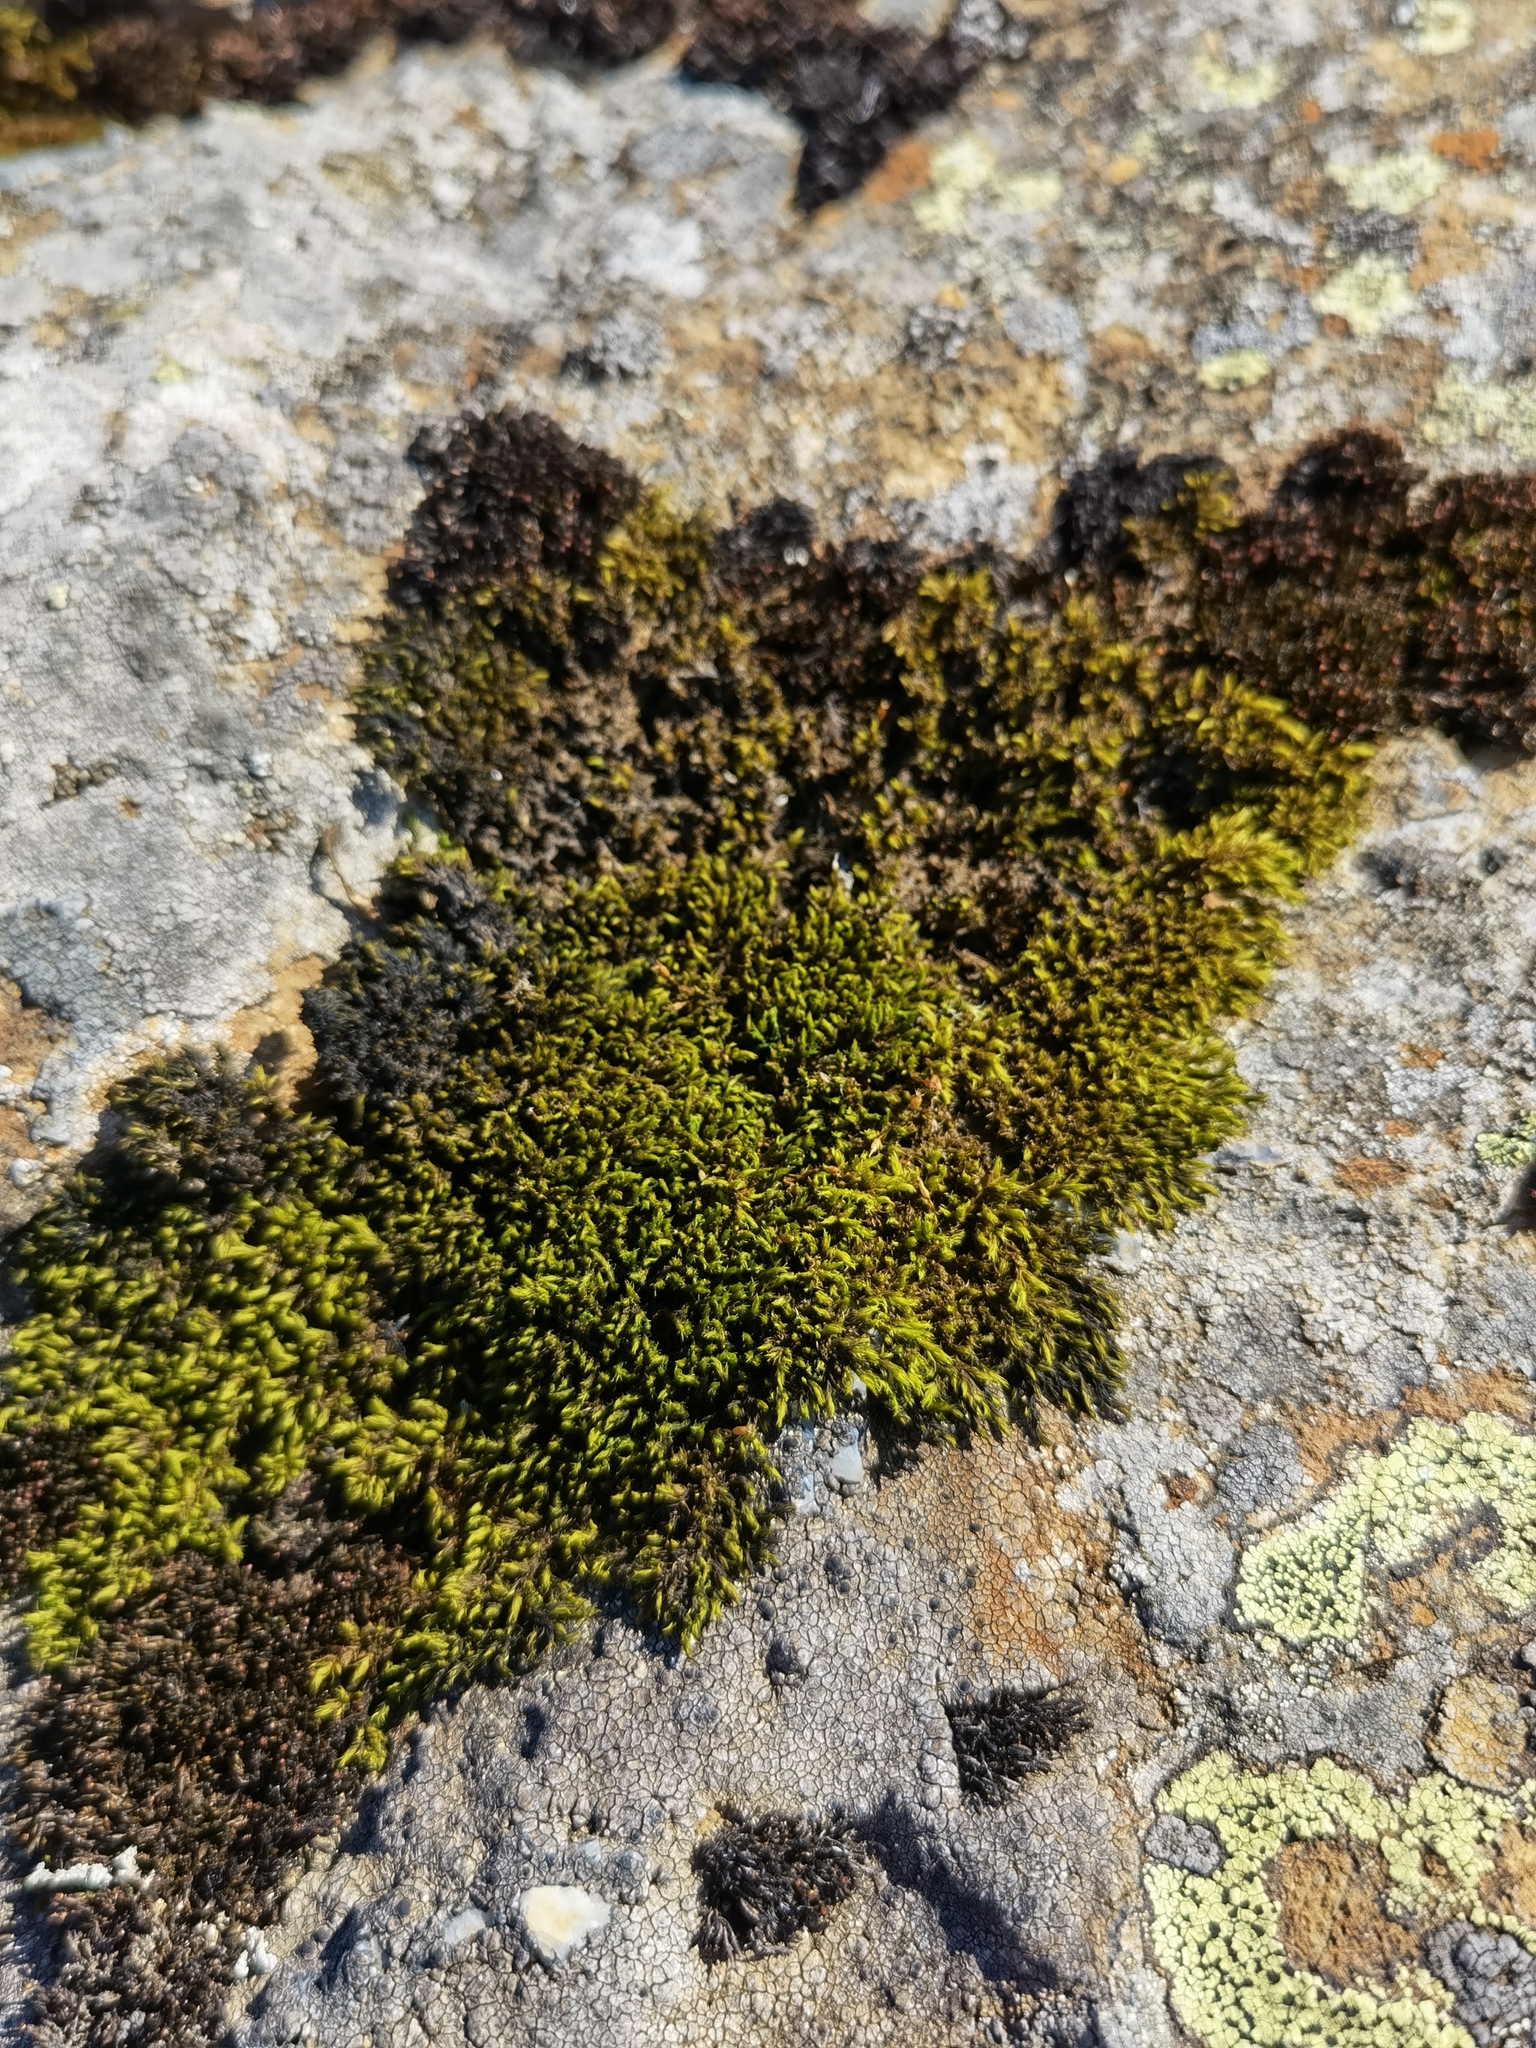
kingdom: Plantae
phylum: Bryophyta
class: Bryopsida
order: Grimmiales
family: Grimmiaceae
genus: Dilutineuron
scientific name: Dilutineuron fasciculare
